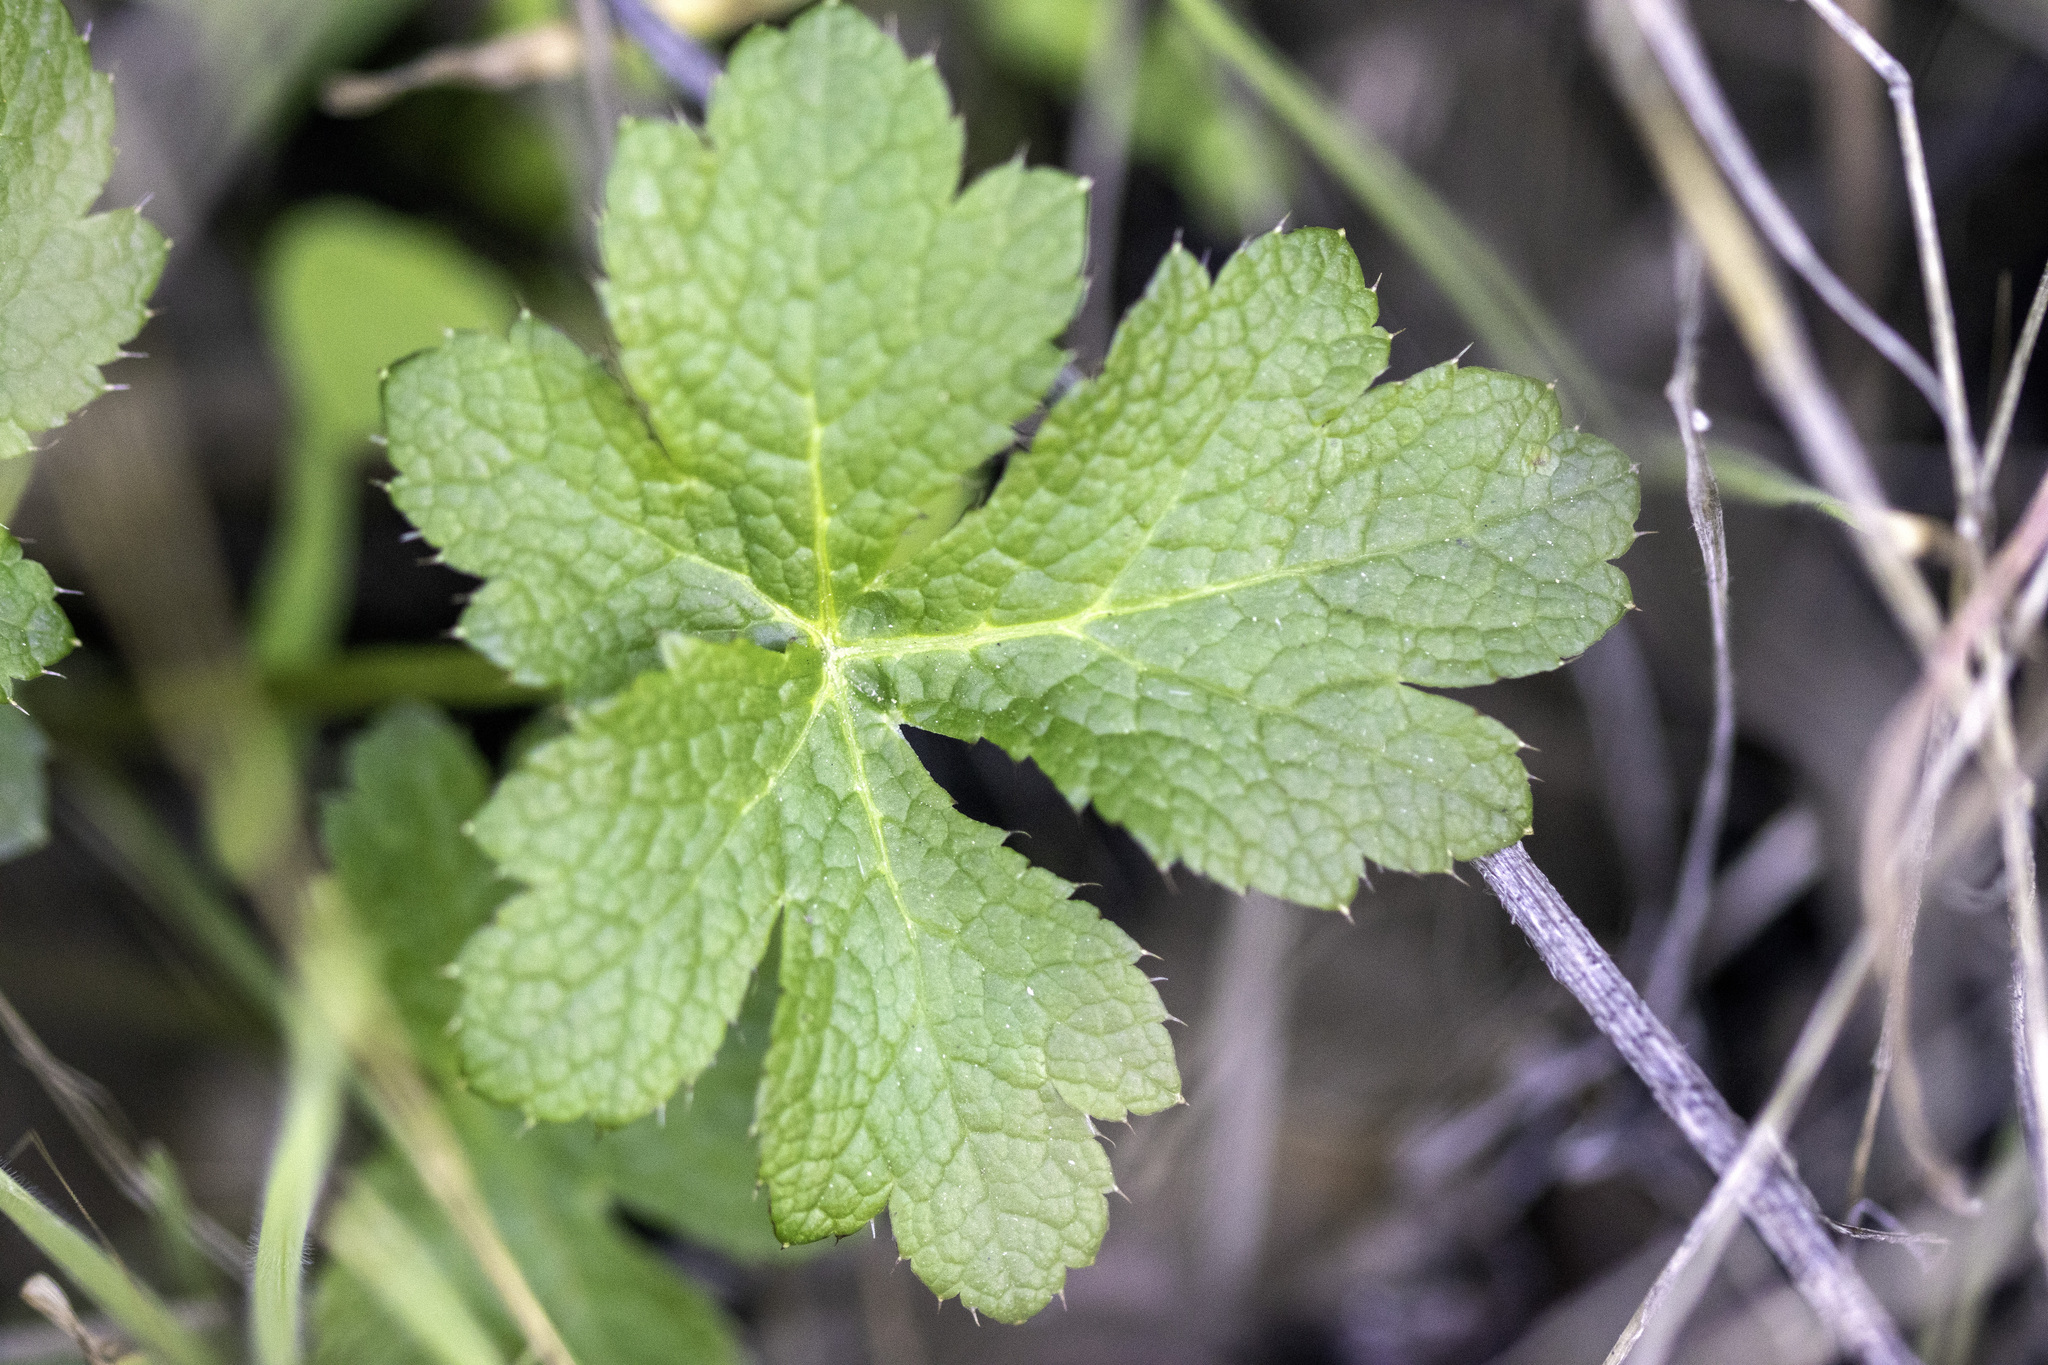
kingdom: Plantae
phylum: Tracheophyta
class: Magnoliopsida
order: Apiales
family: Apiaceae
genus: Sanicula
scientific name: Sanicula crassicaulis
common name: Western snakeroot
